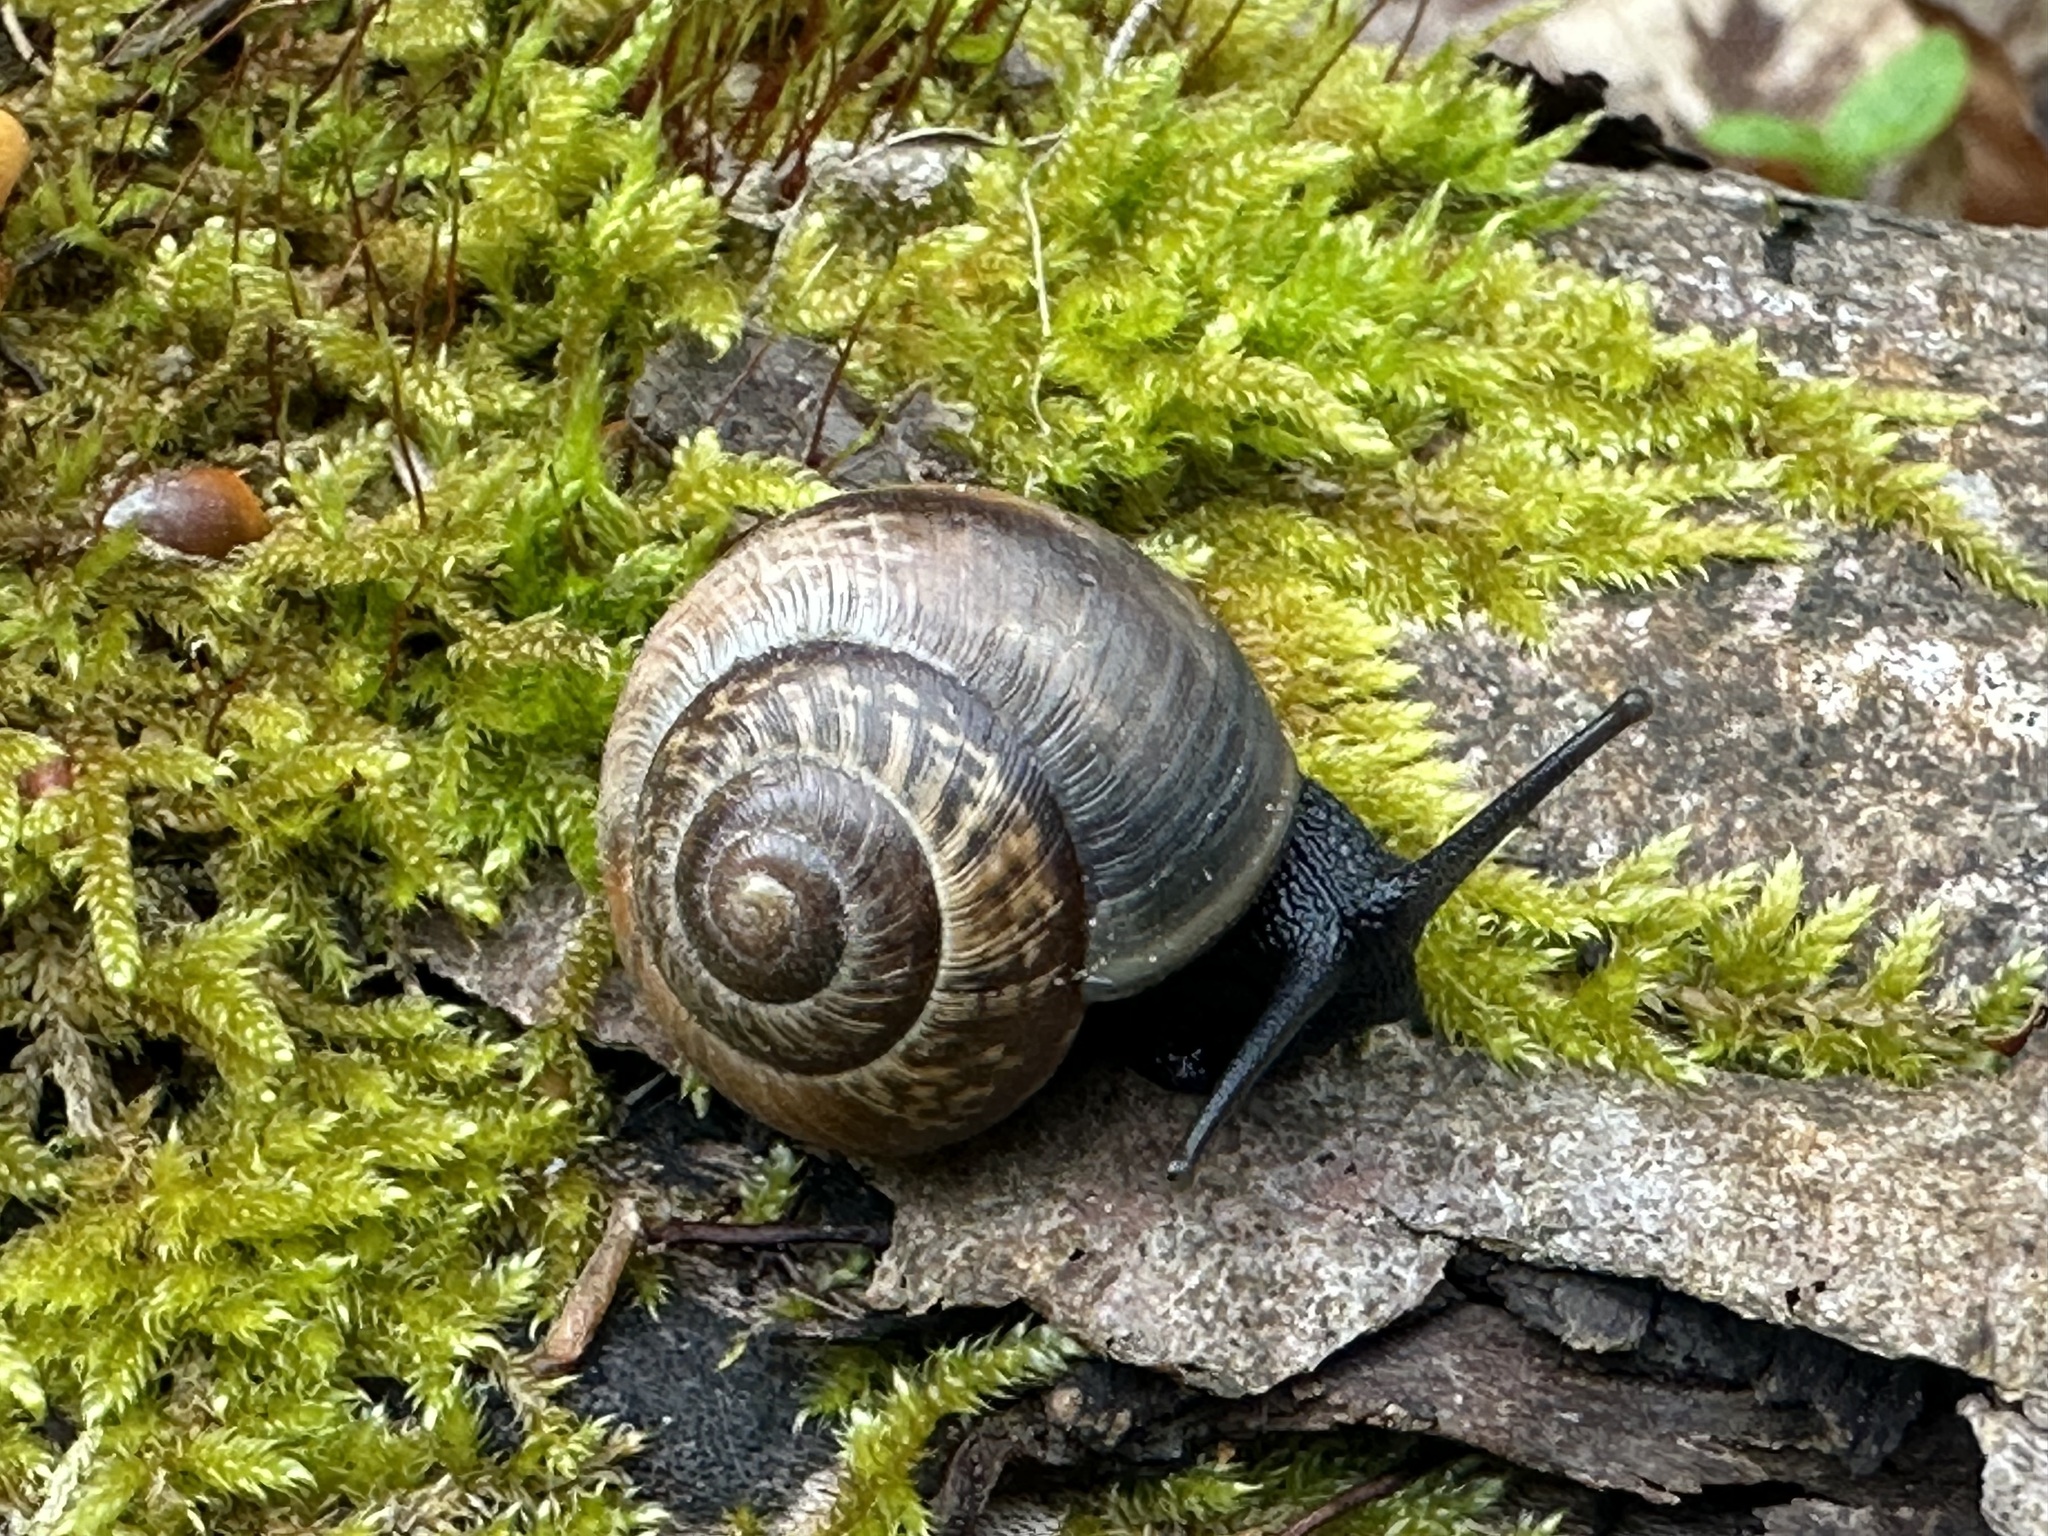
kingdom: Animalia
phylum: Mollusca
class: Gastropoda
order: Stylommatophora
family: Helicidae
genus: Arianta
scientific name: Arianta arbustorum
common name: Copse snail
